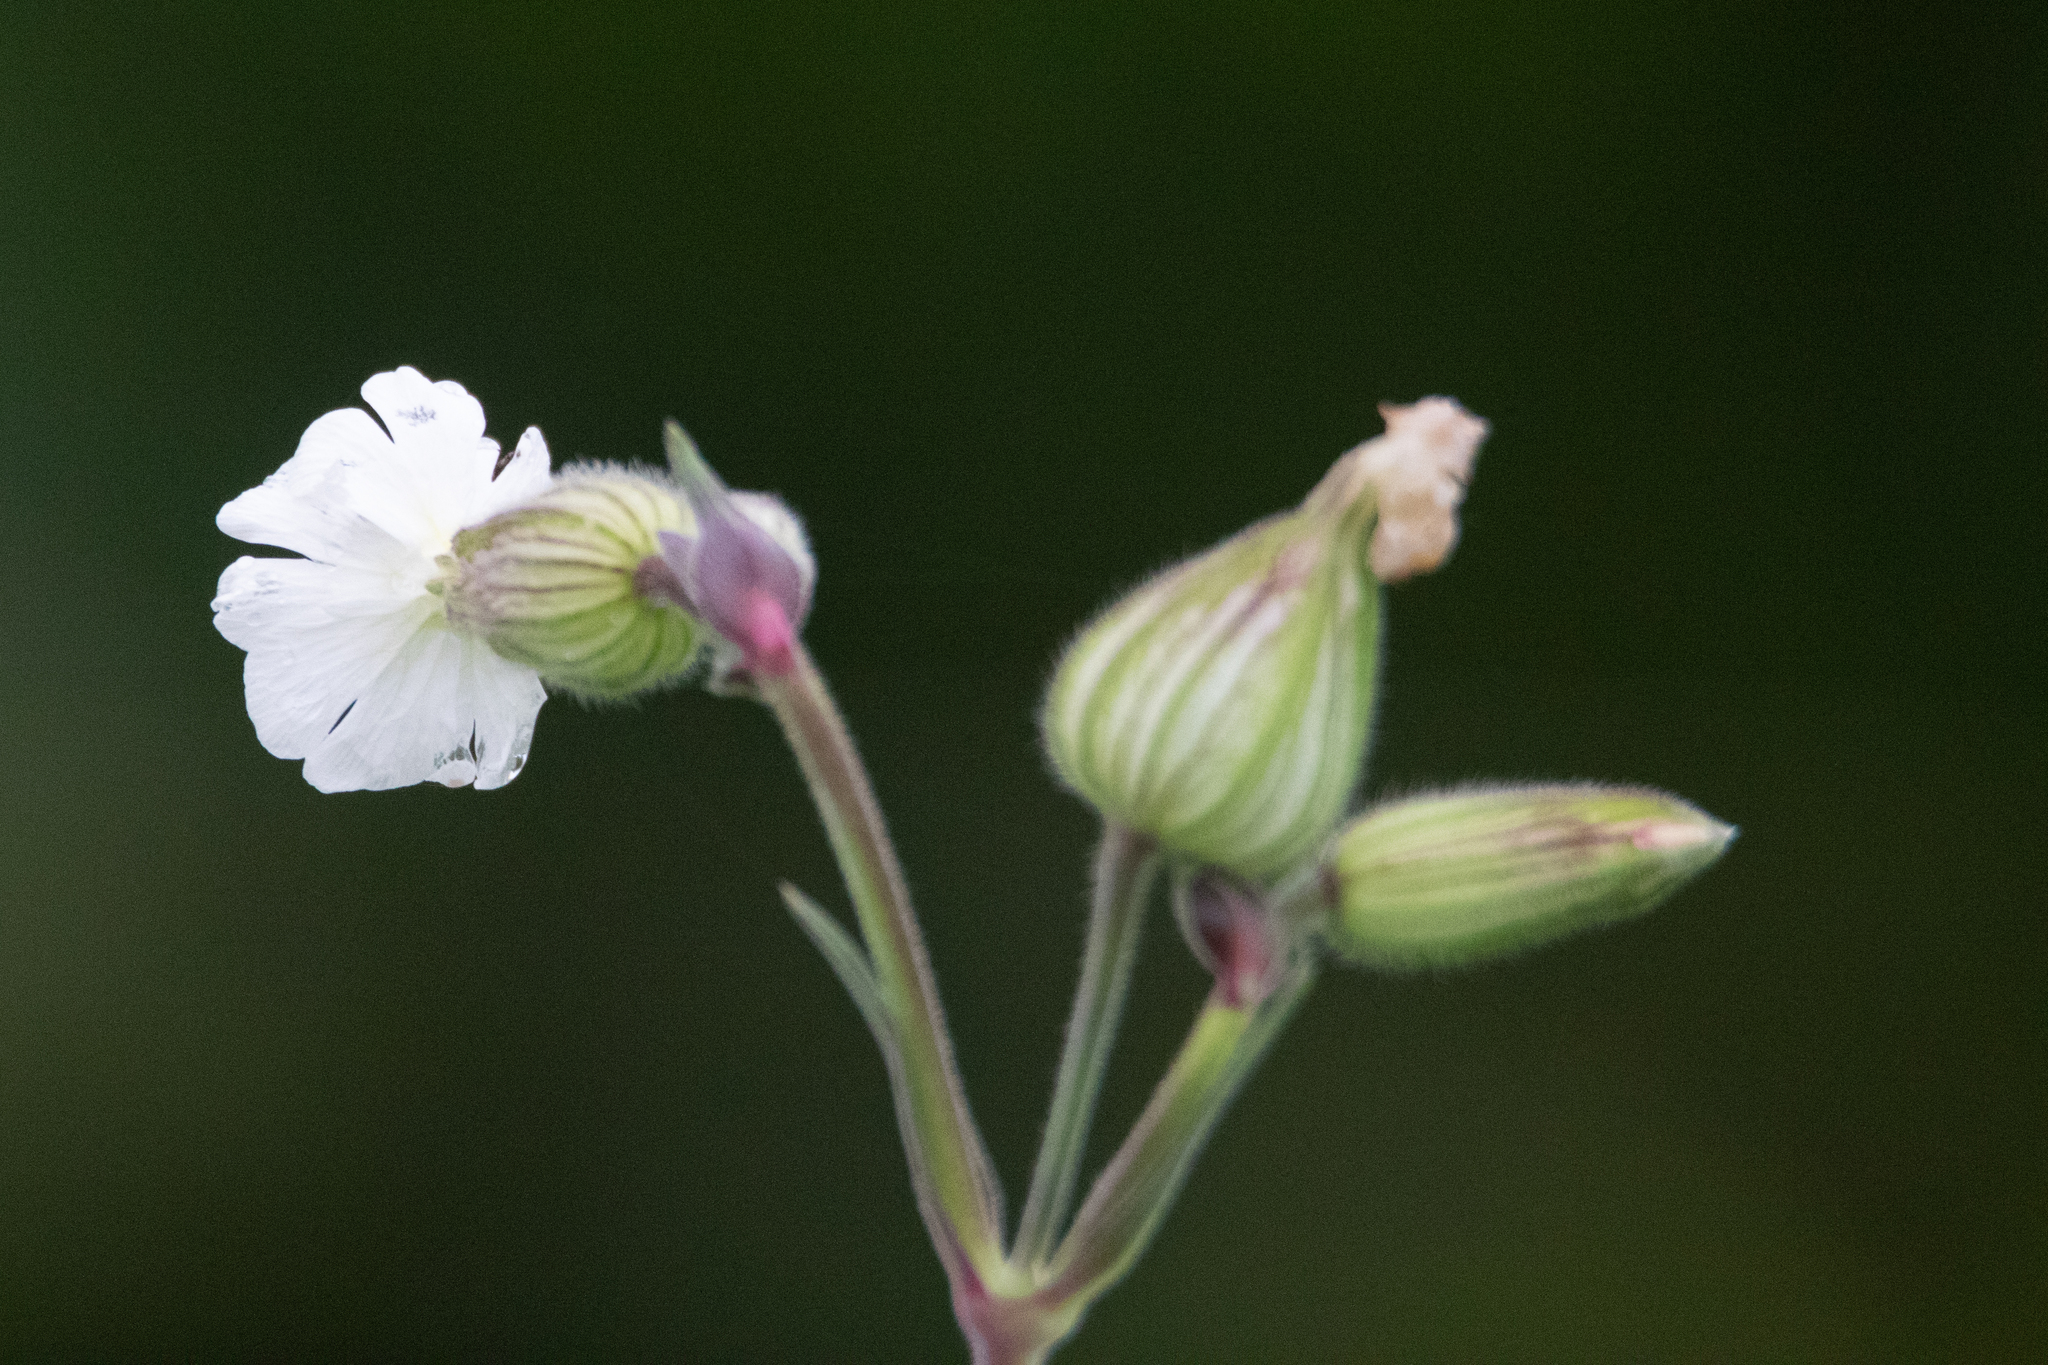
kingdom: Plantae
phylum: Tracheophyta
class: Magnoliopsida
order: Caryophyllales
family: Caryophyllaceae
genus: Silene
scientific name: Silene latifolia
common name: White campion
